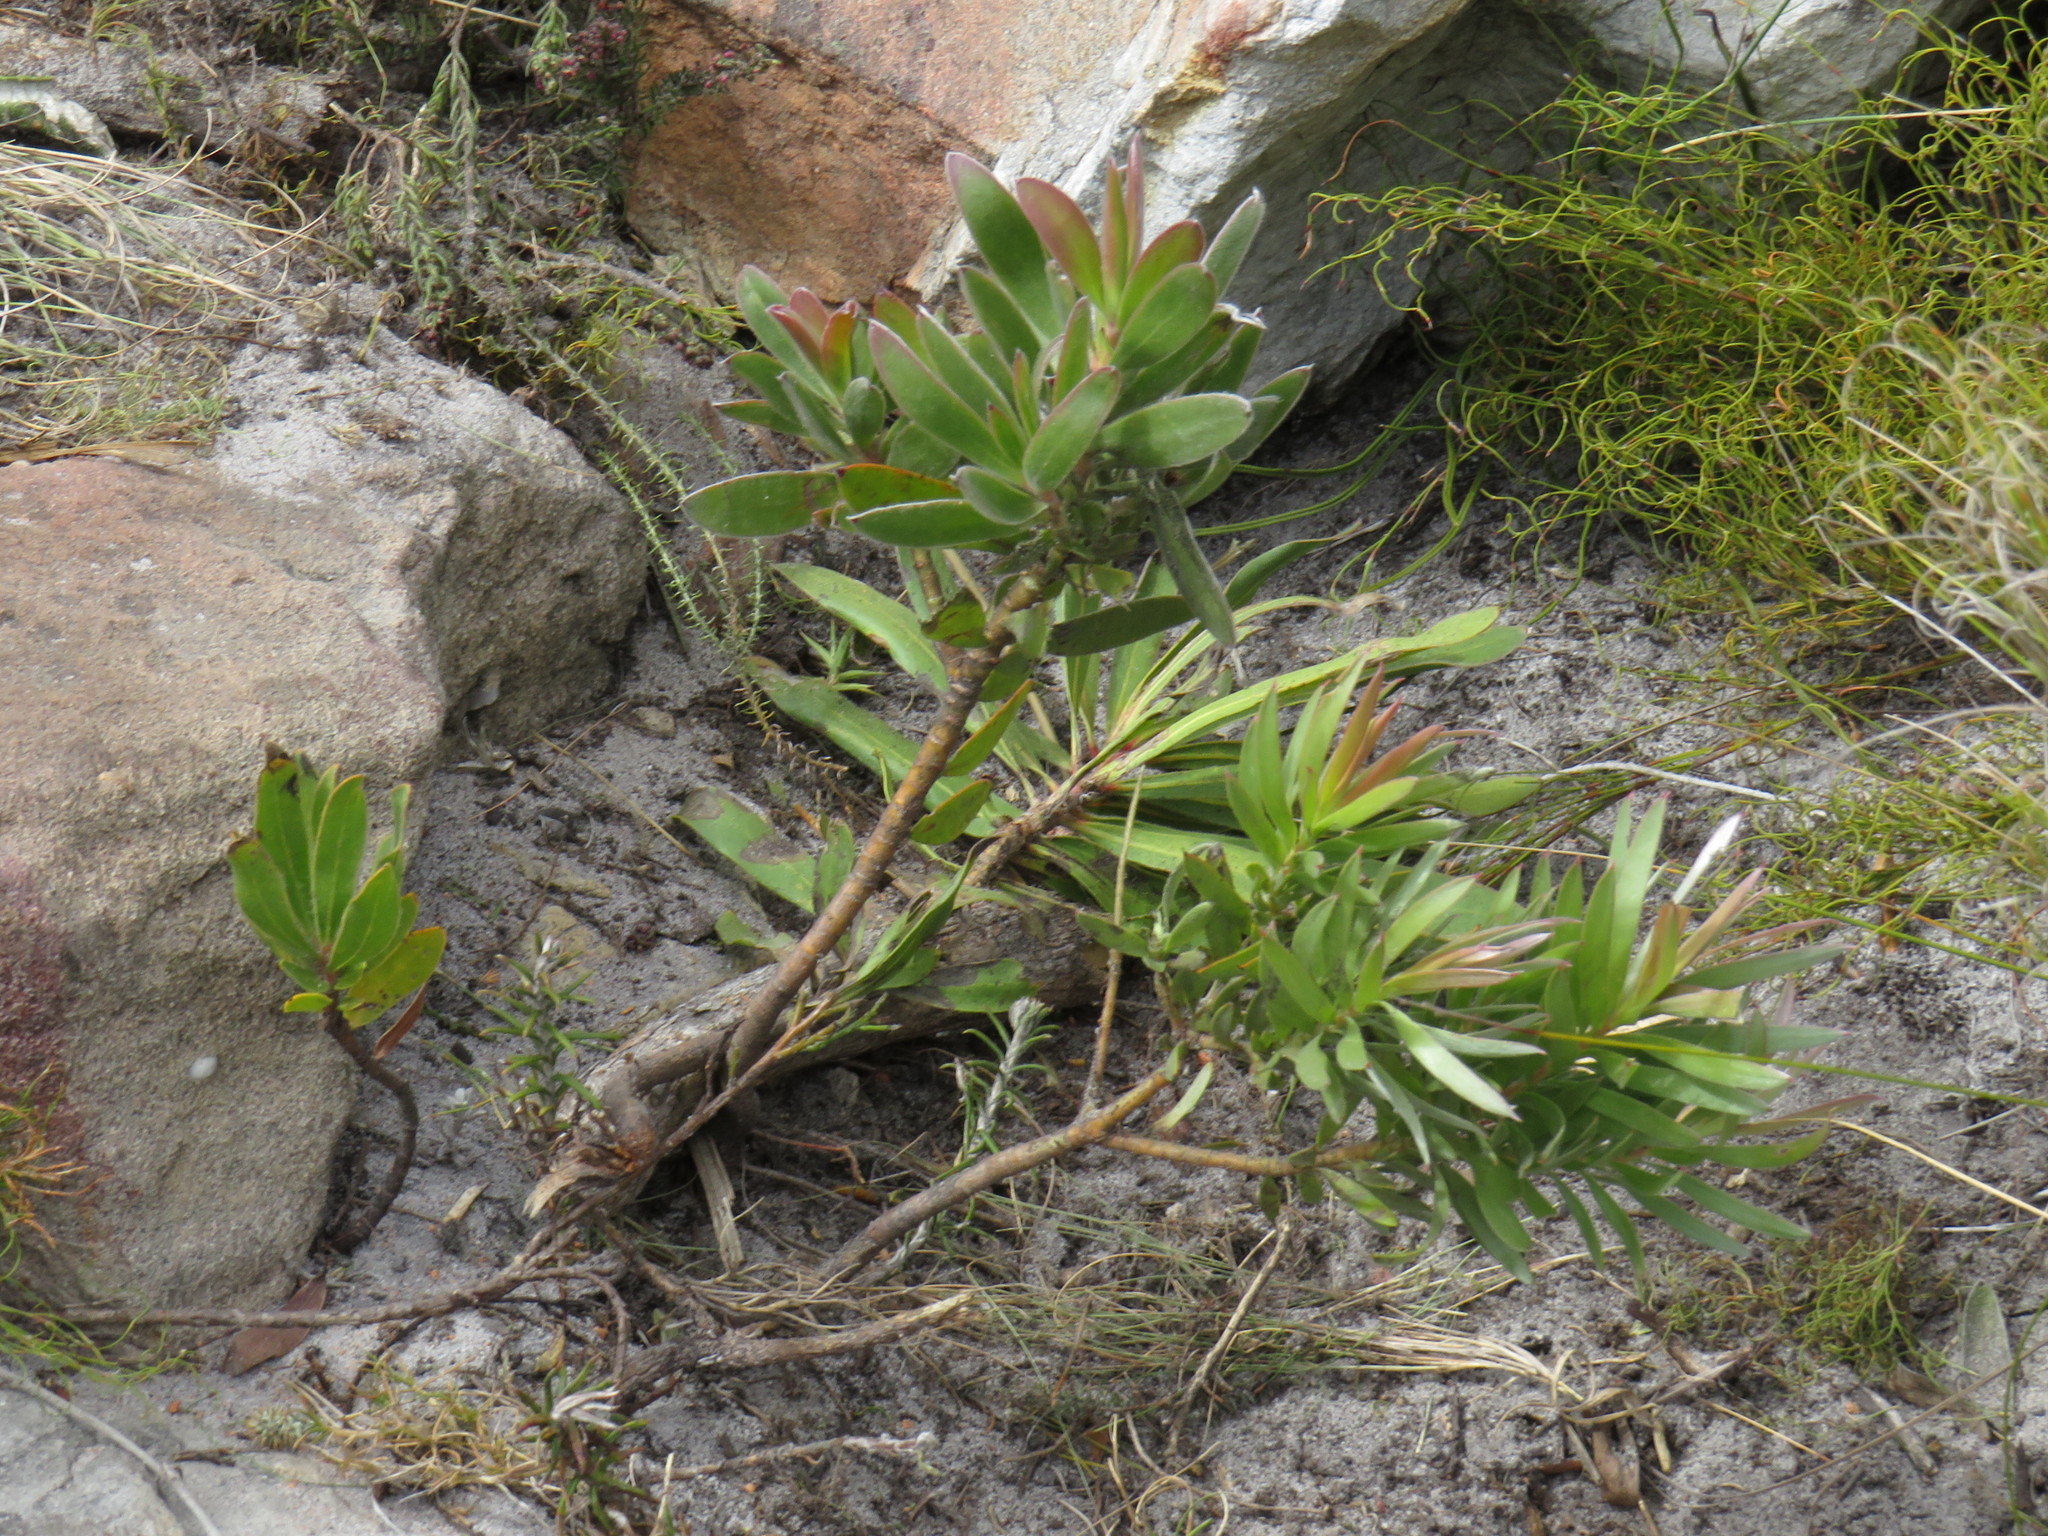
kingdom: Plantae
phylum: Tracheophyta
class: Magnoliopsida
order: Proteales
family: Proteaceae
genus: Leucadendron
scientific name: Leucadendron laureolum
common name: Golden sunshinebush
